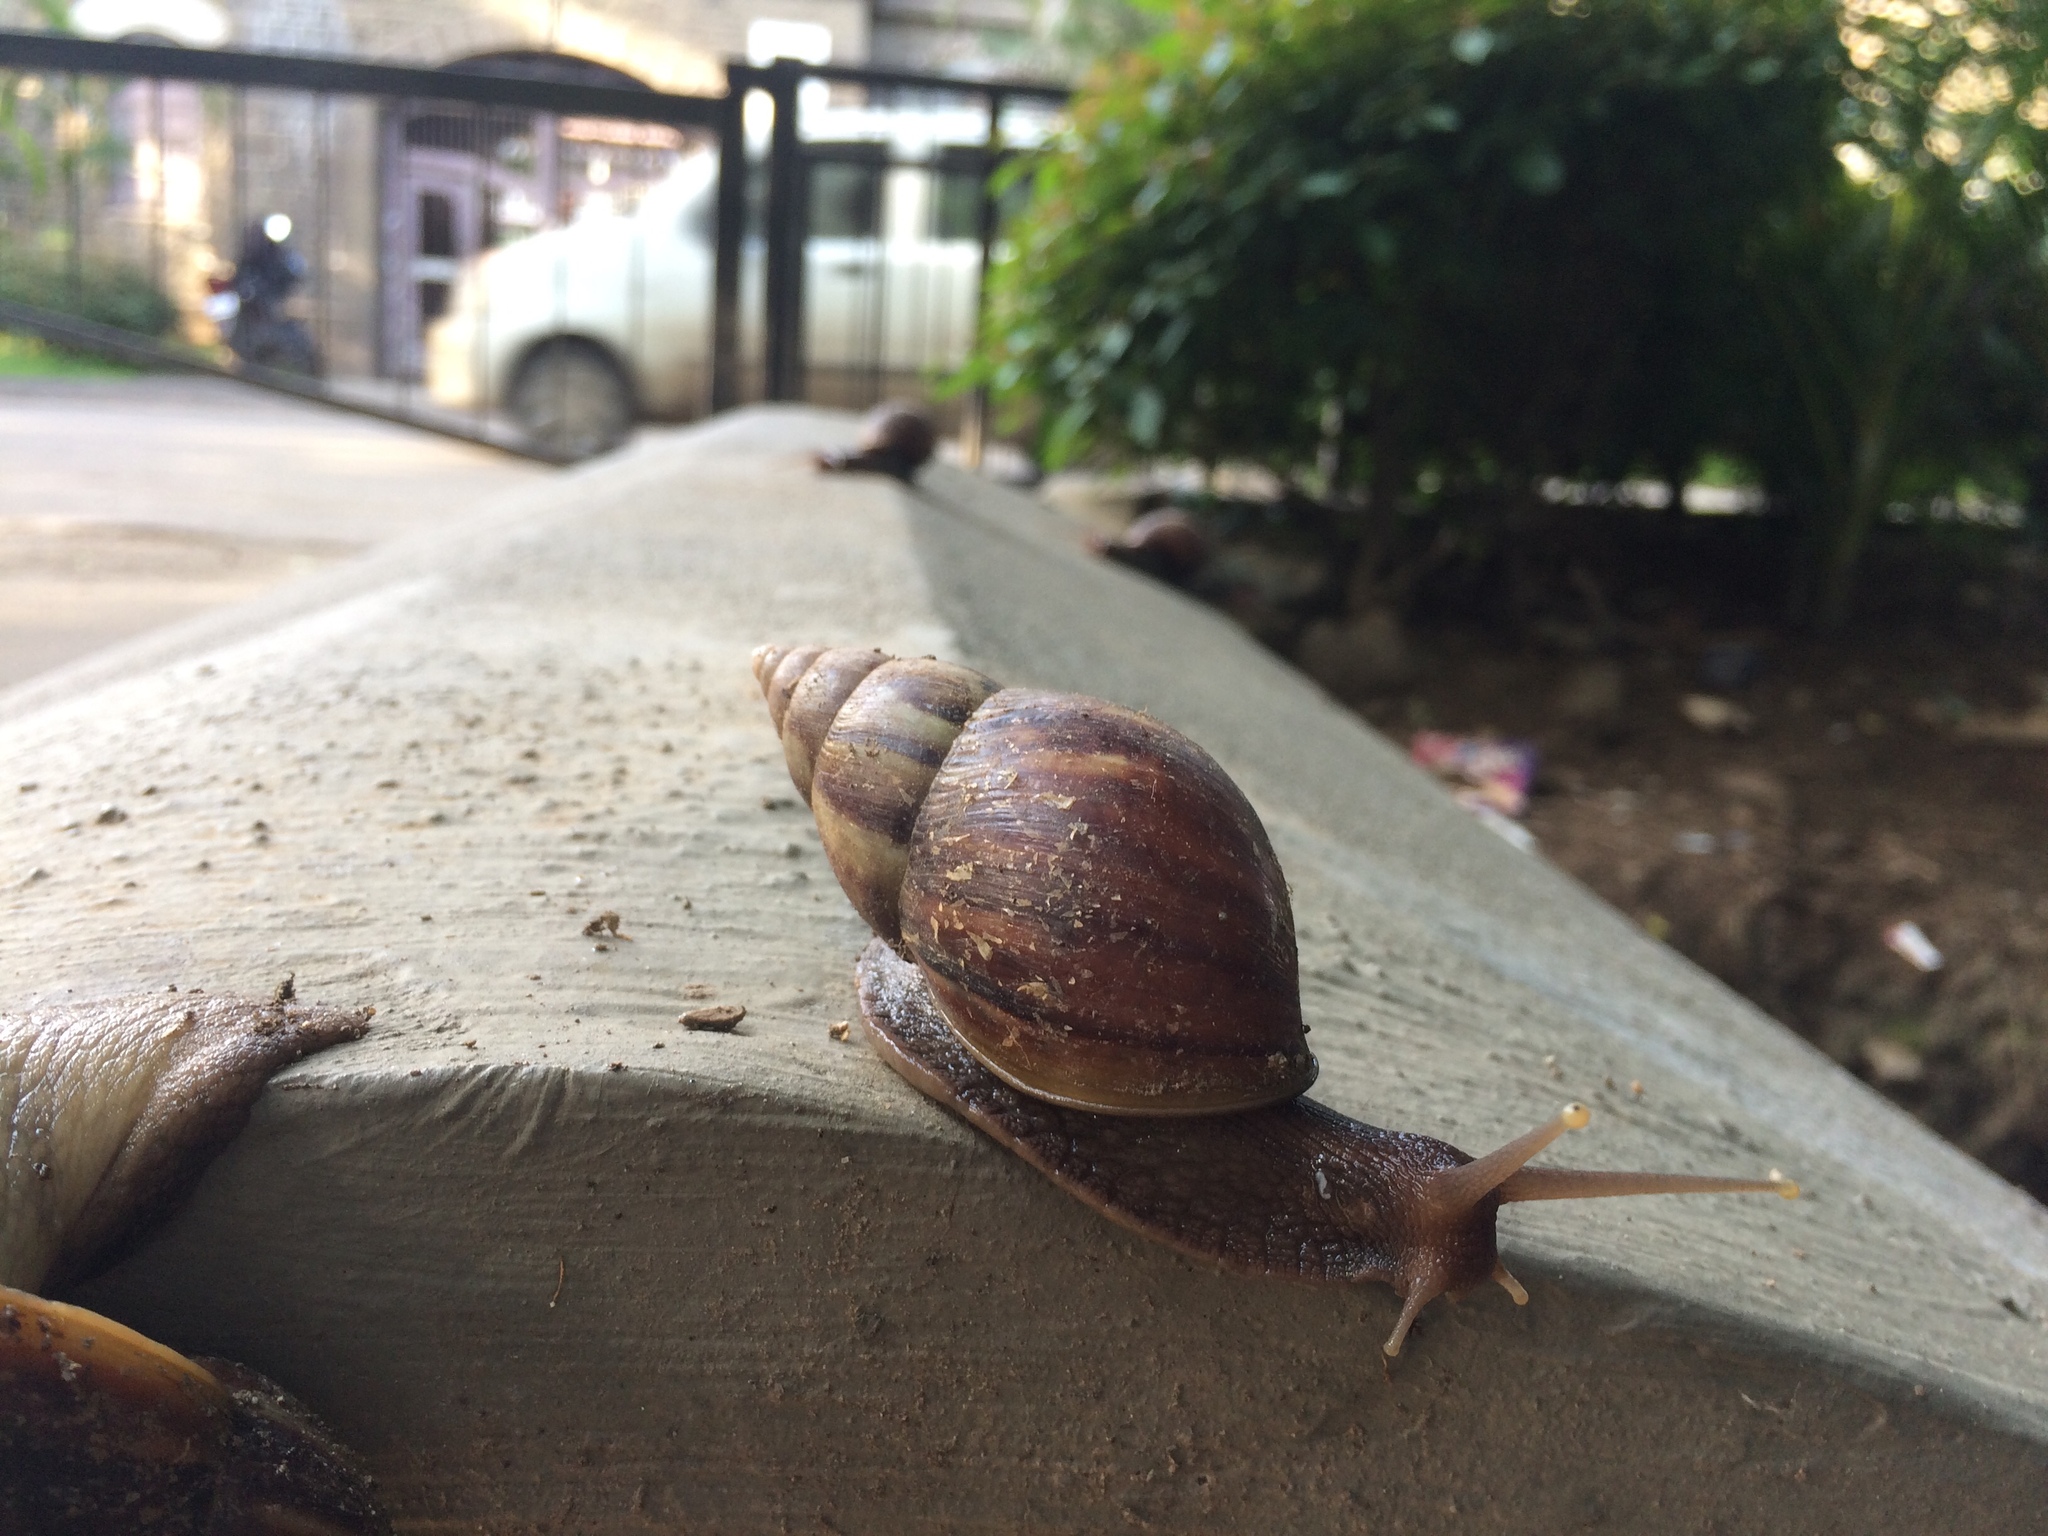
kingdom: Animalia
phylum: Mollusca
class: Gastropoda
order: Stylommatophora
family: Achatinidae
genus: Lissachatina
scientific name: Lissachatina fulica
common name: Giant african snail
